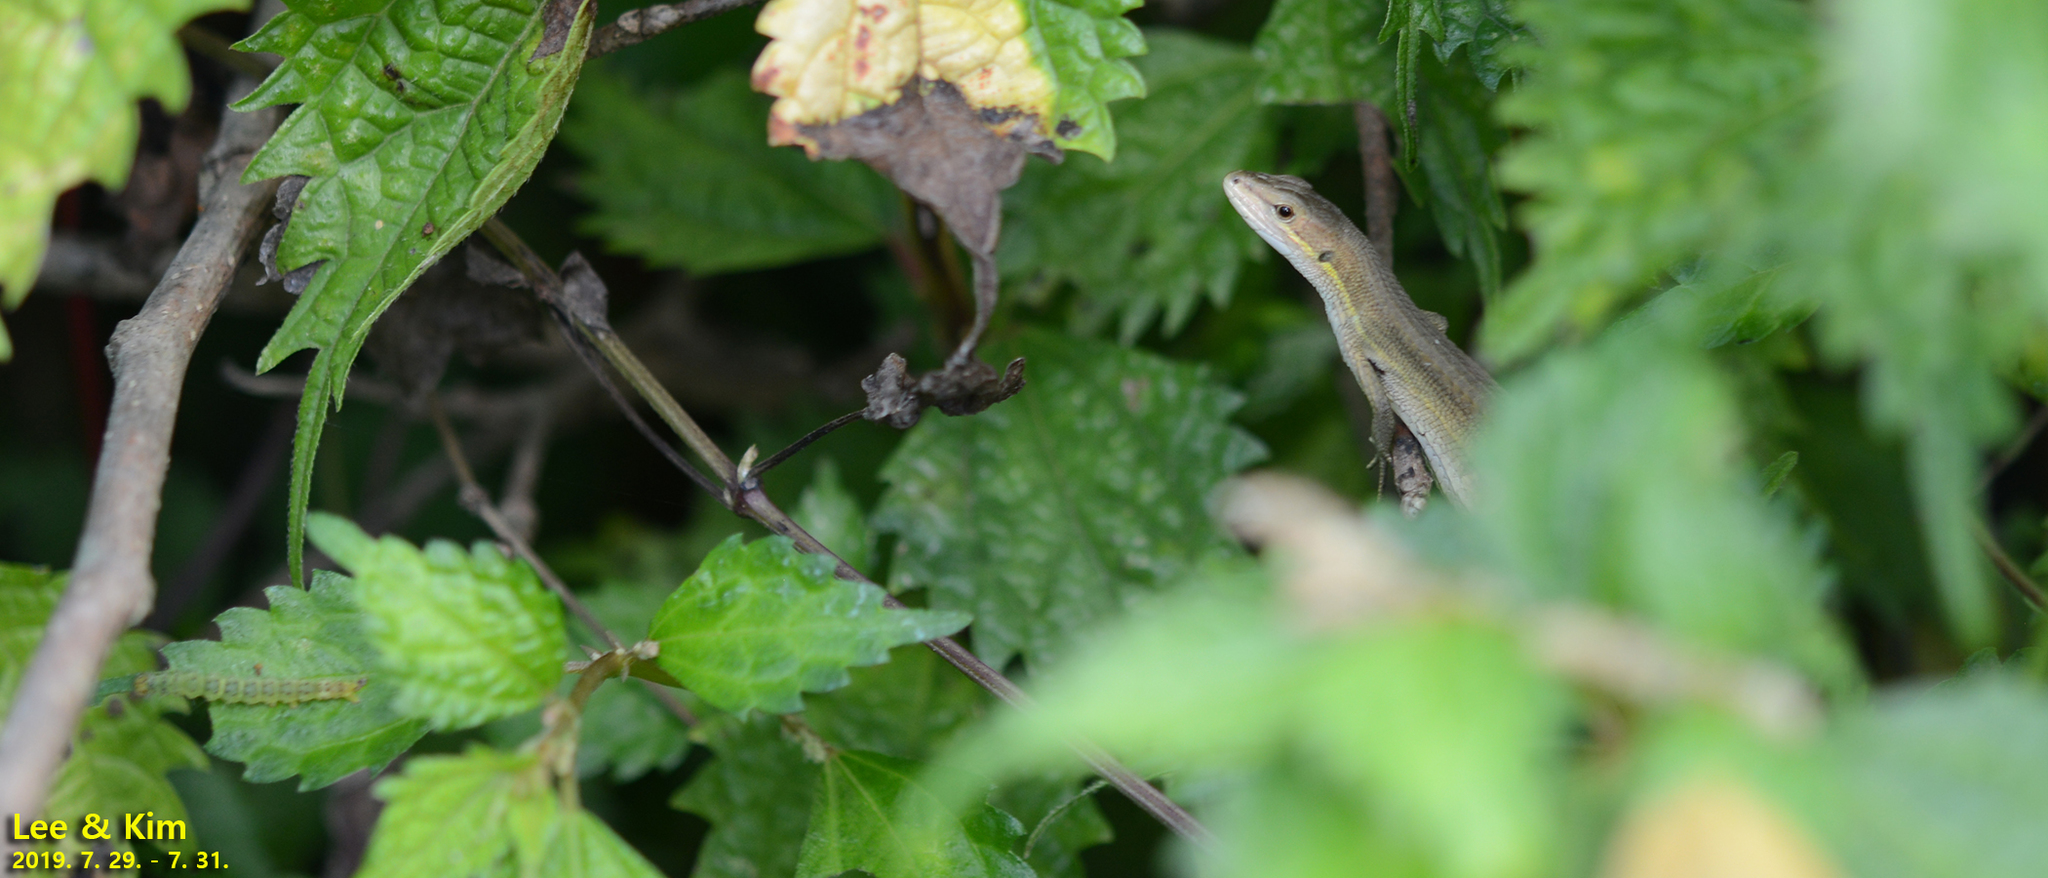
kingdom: Animalia
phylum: Chordata
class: Squamata
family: Lacertidae
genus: Takydromus
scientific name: Takydromus wolteri
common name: Mountain grass lizard
